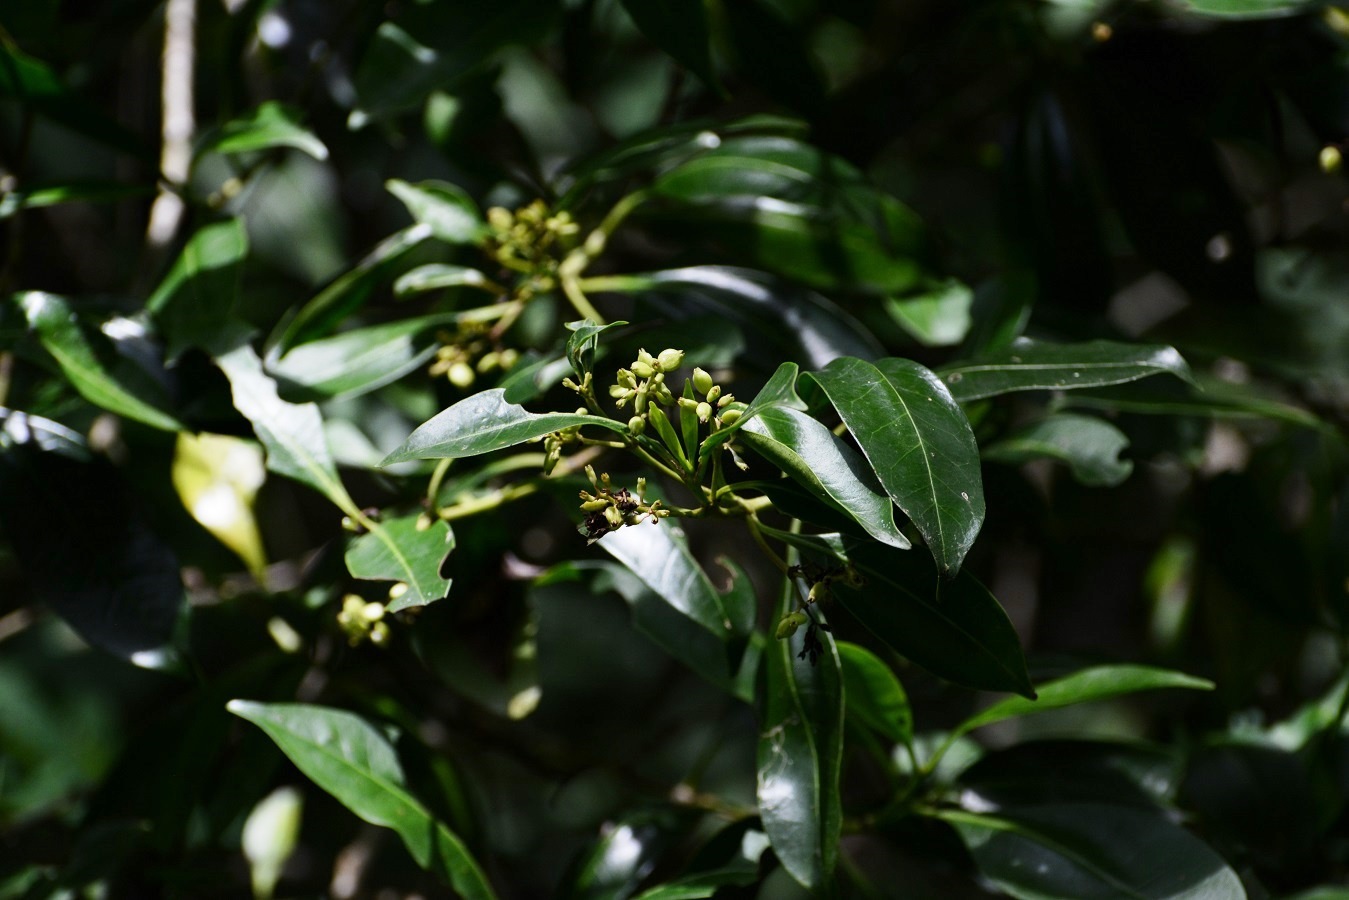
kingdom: Plantae
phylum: Tracheophyta
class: Magnoliopsida
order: Gentianales
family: Rubiaceae
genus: Chiococca
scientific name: Chiococca phaenostemon
